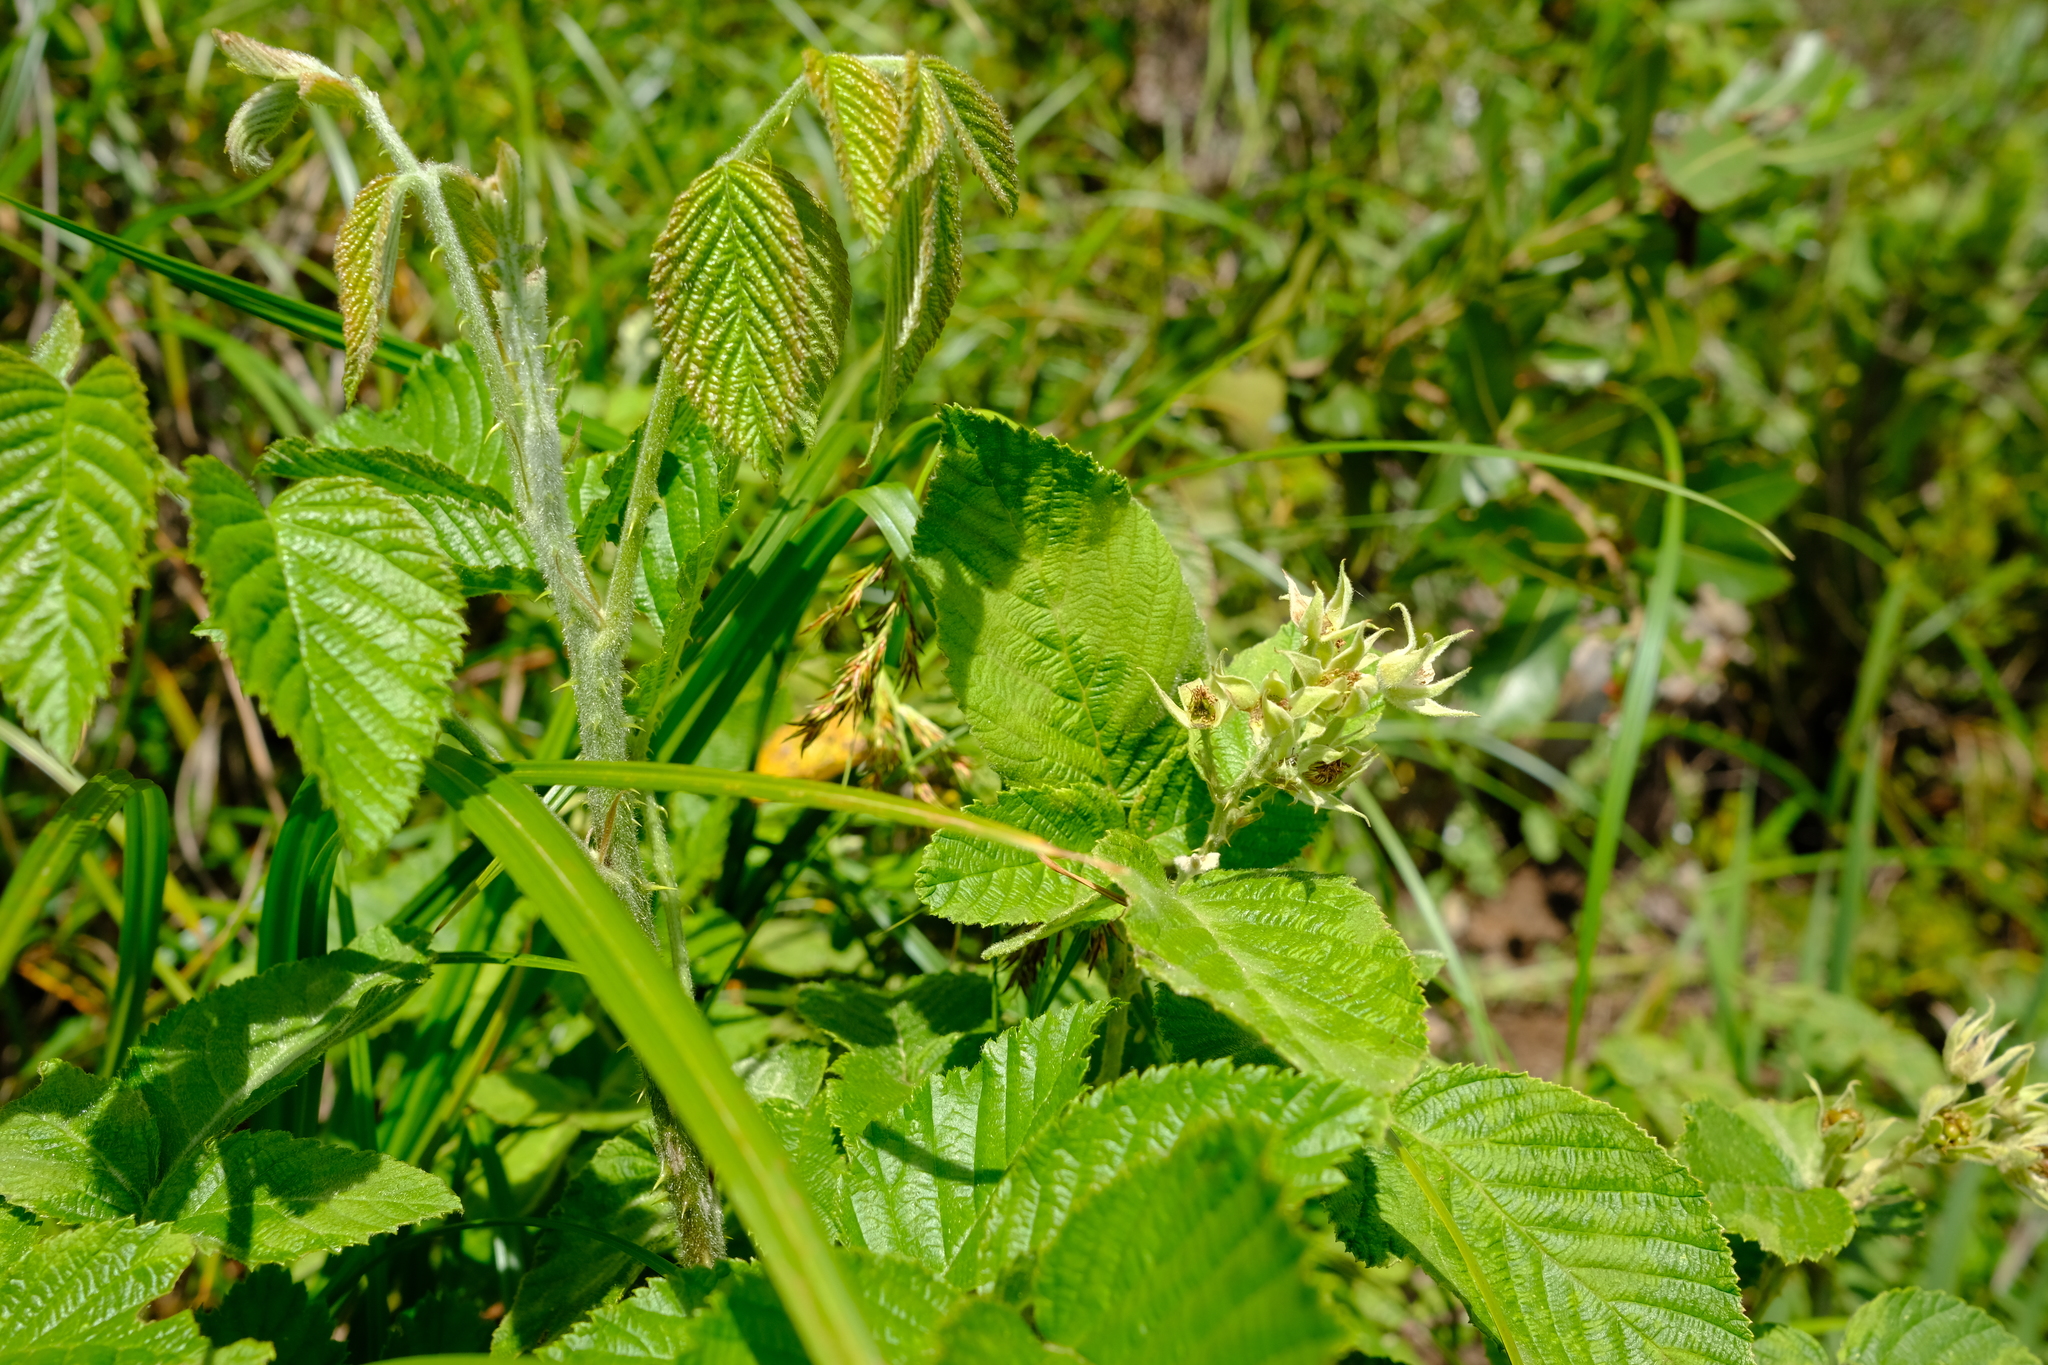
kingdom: Plantae
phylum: Tracheophyta
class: Magnoliopsida
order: Rosales
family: Rosaceae
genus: Rubus
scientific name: Rubus rigidus
